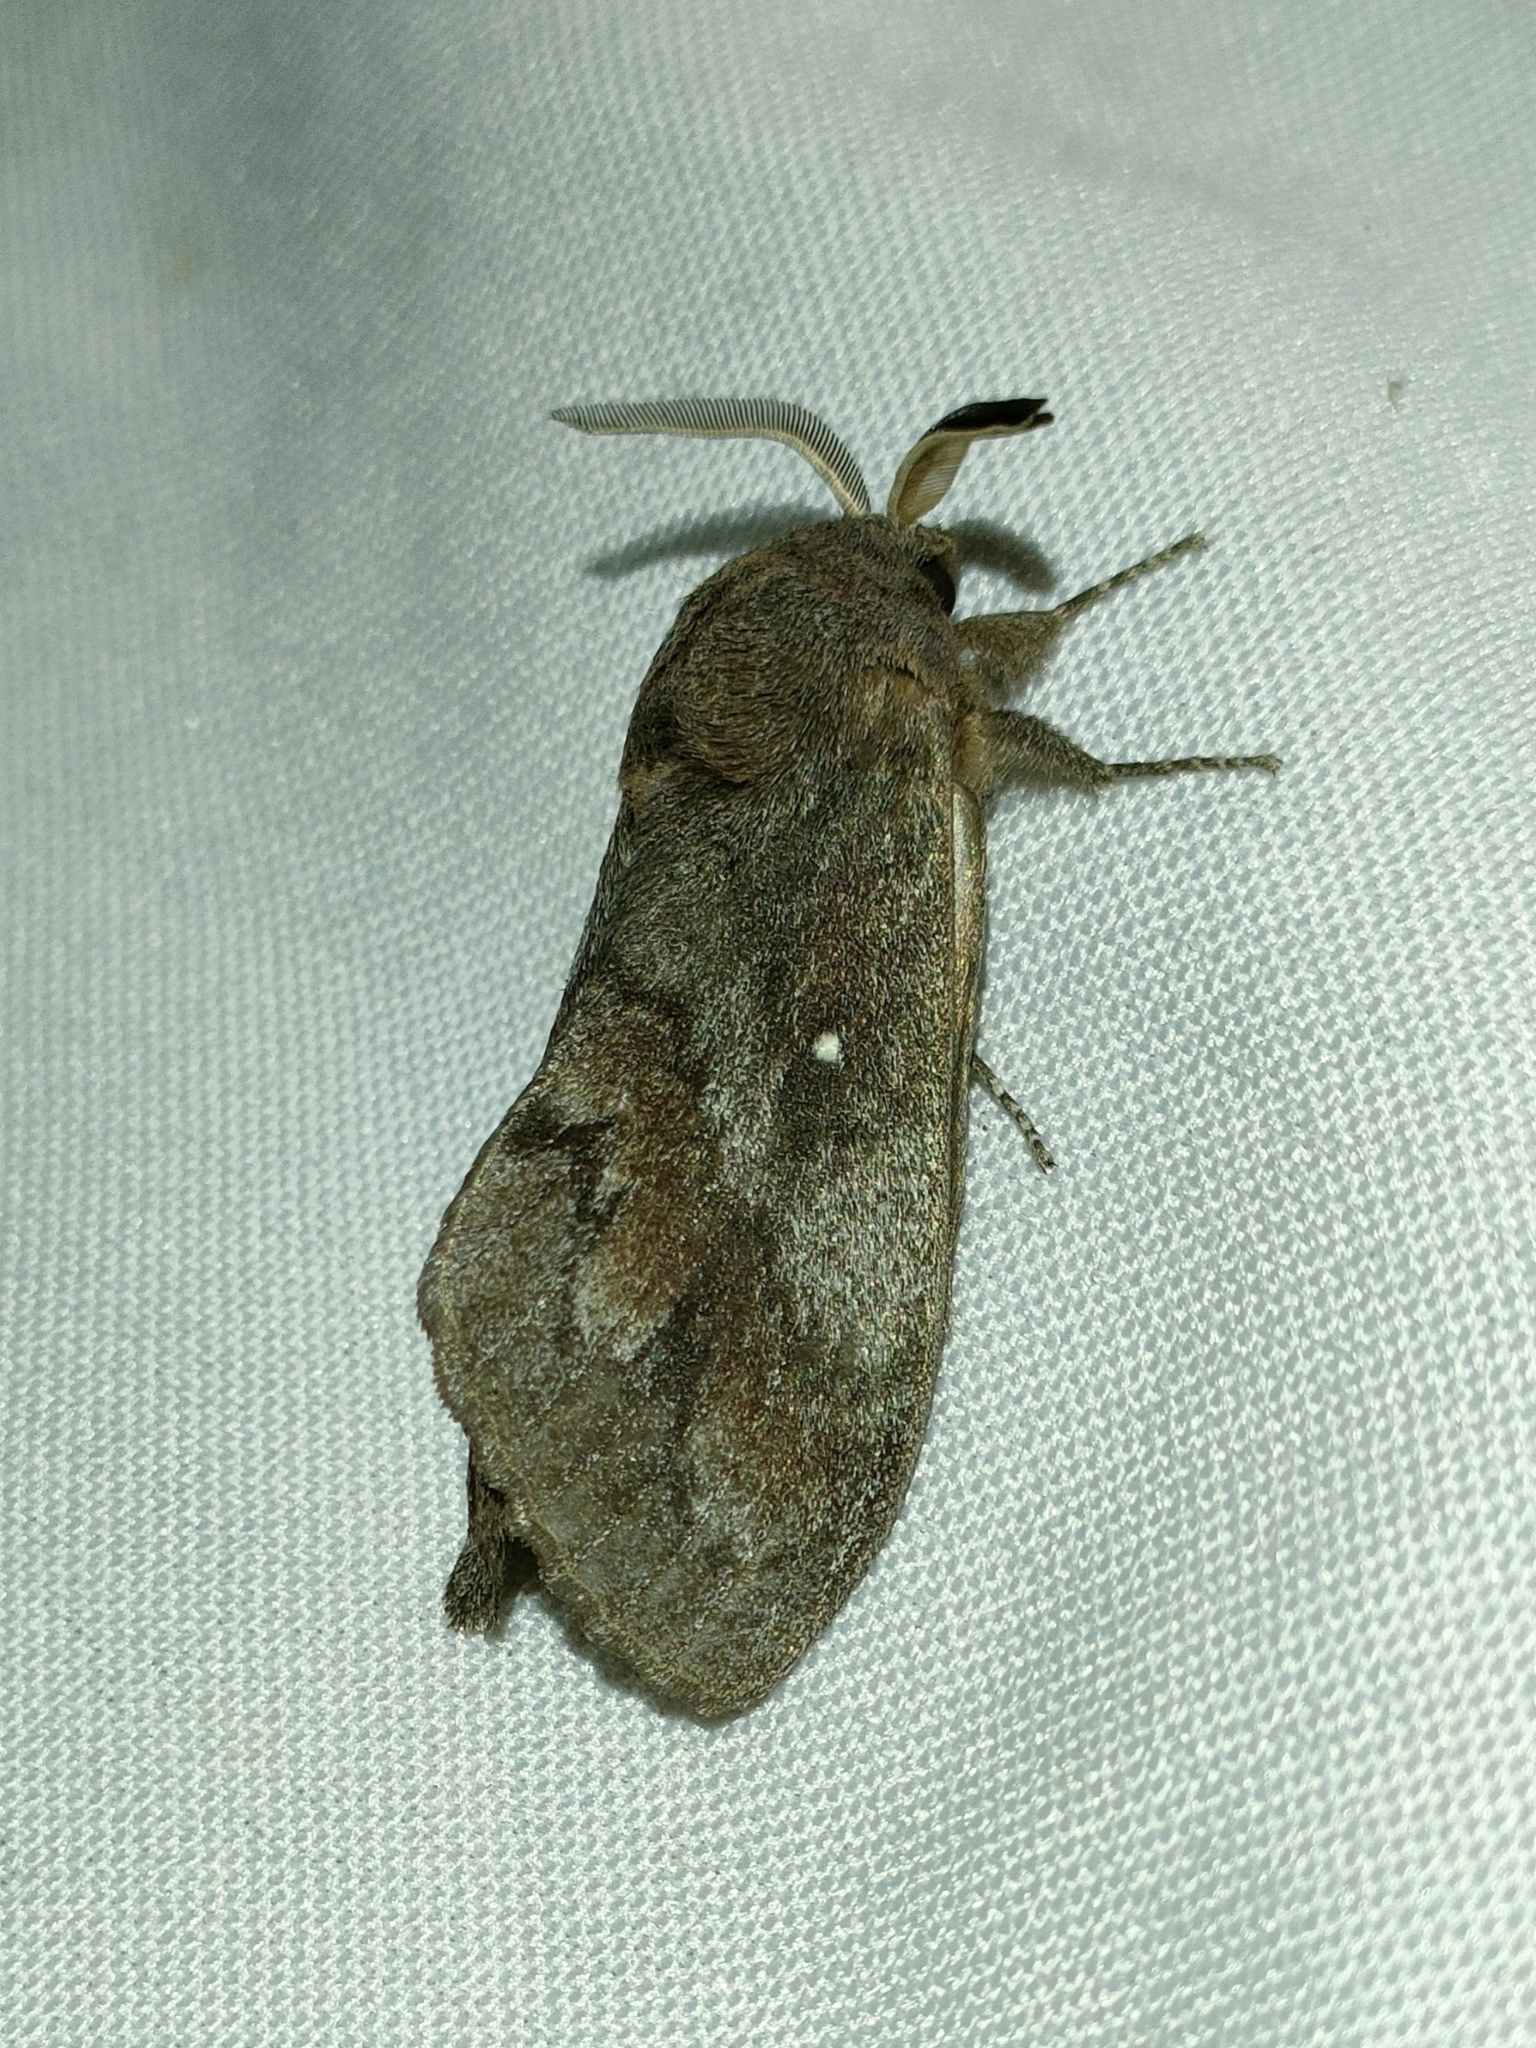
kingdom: Animalia
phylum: Arthropoda
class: Insecta
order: Lepidoptera
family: Lasiocampidae
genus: Dendrolimus
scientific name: Dendrolimus pini
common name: Pine-tree lappet
